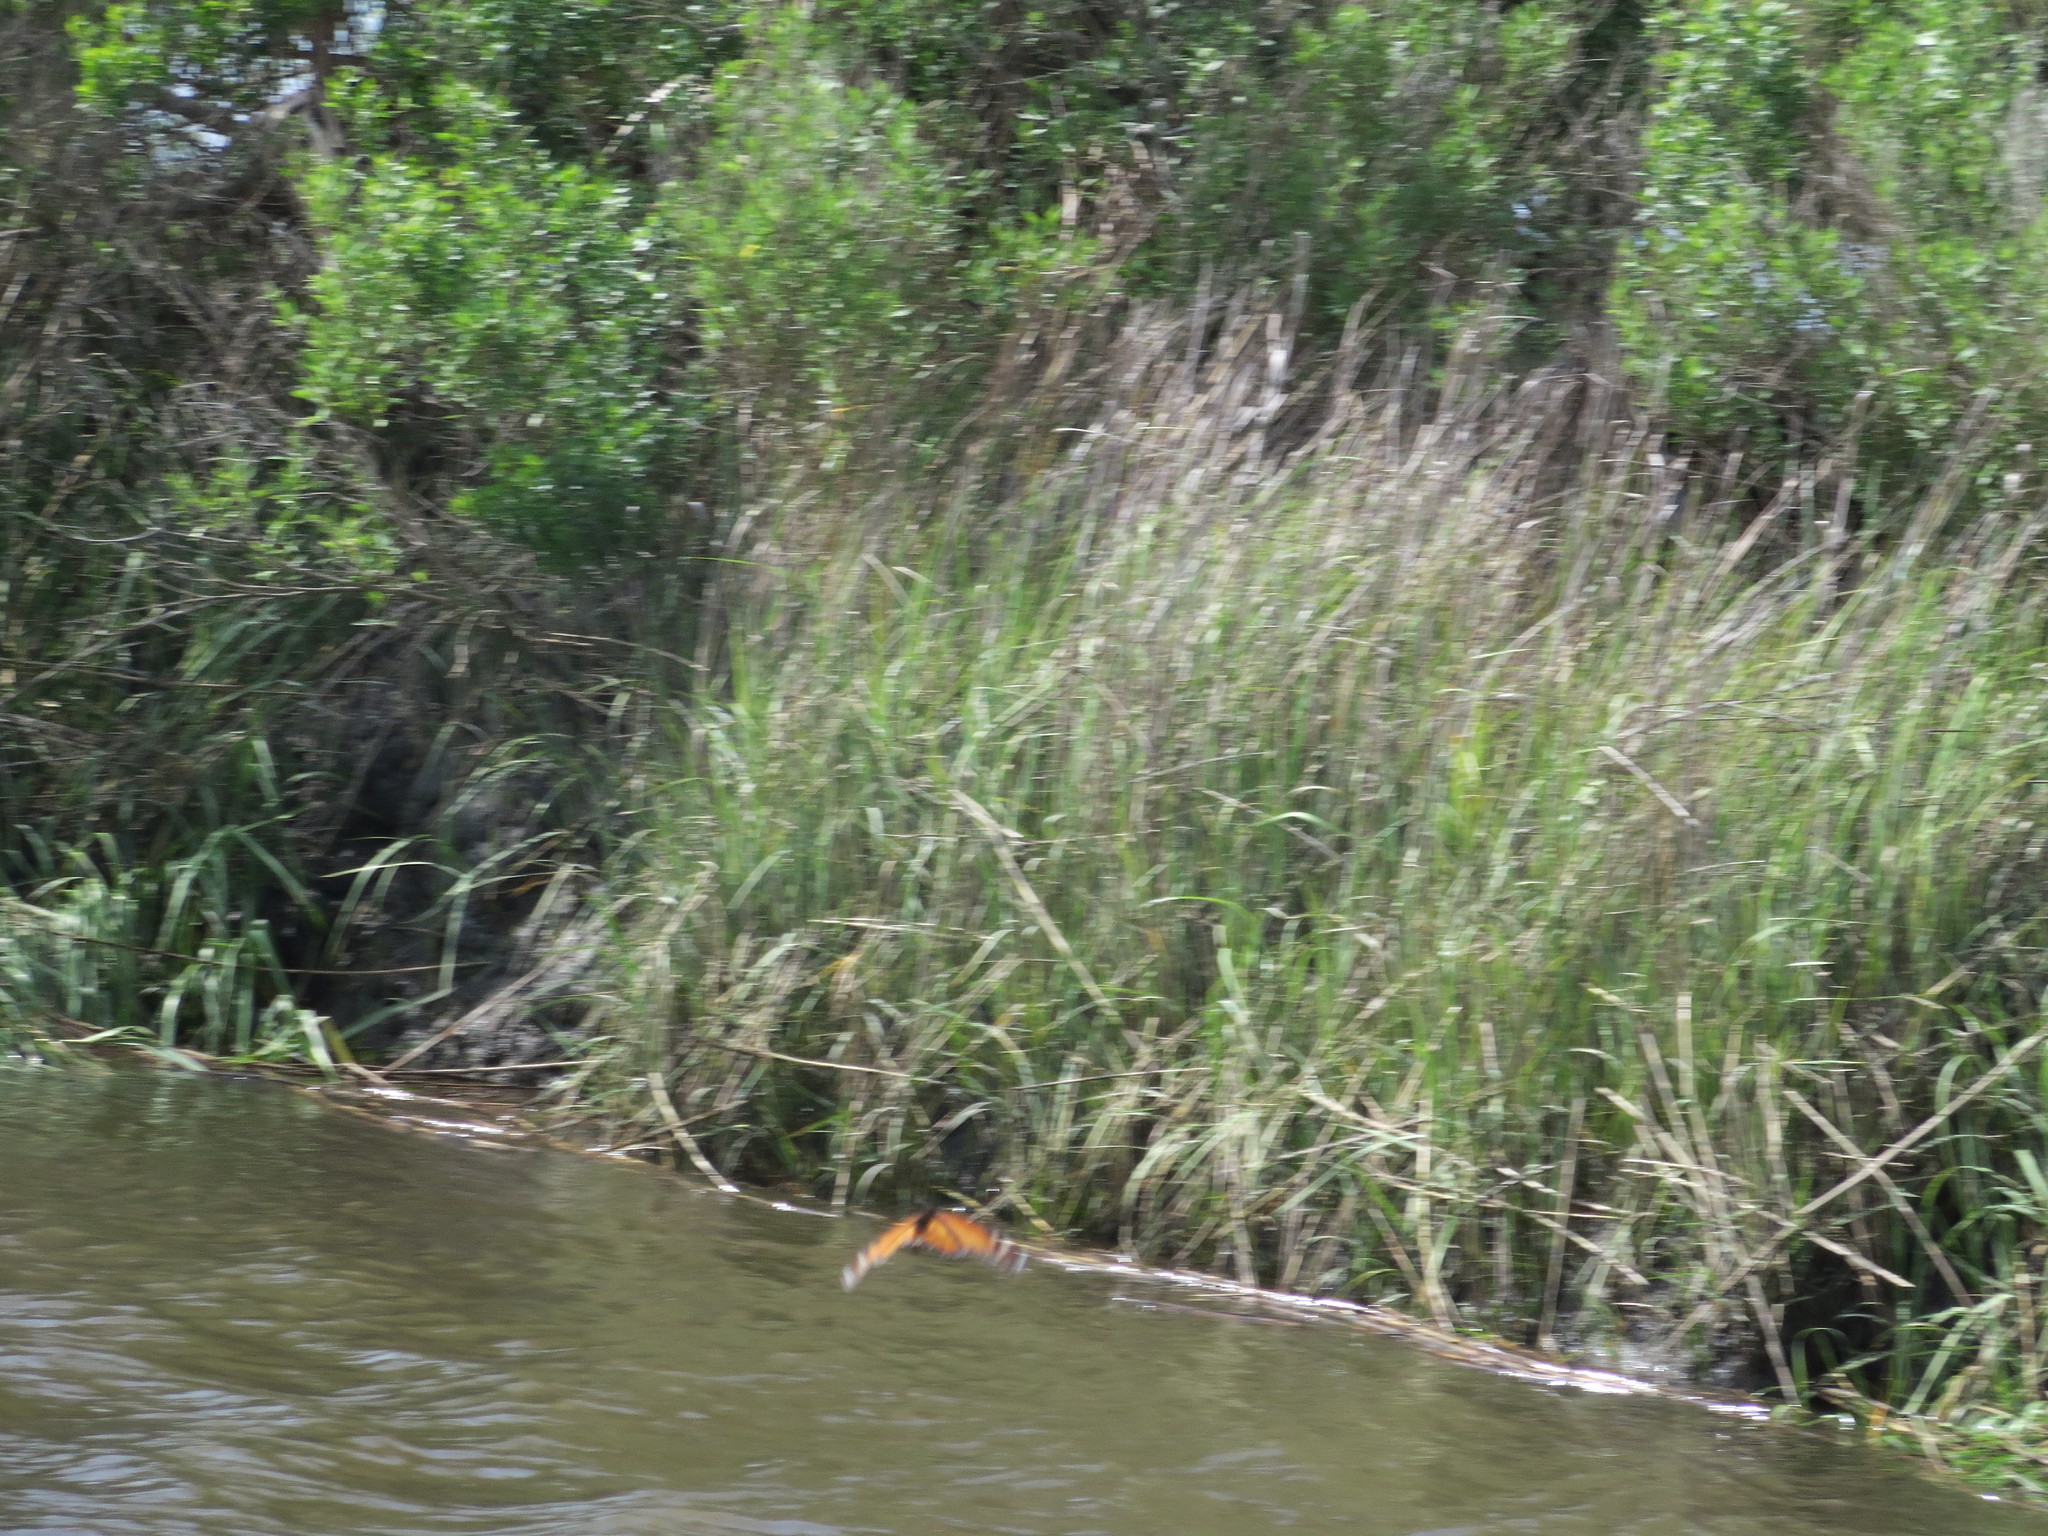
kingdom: Animalia
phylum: Arthropoda
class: Insecta
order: Lepidoptera
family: Nymphalidae
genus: Danaus
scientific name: Danaus plexippus
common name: Monarch
